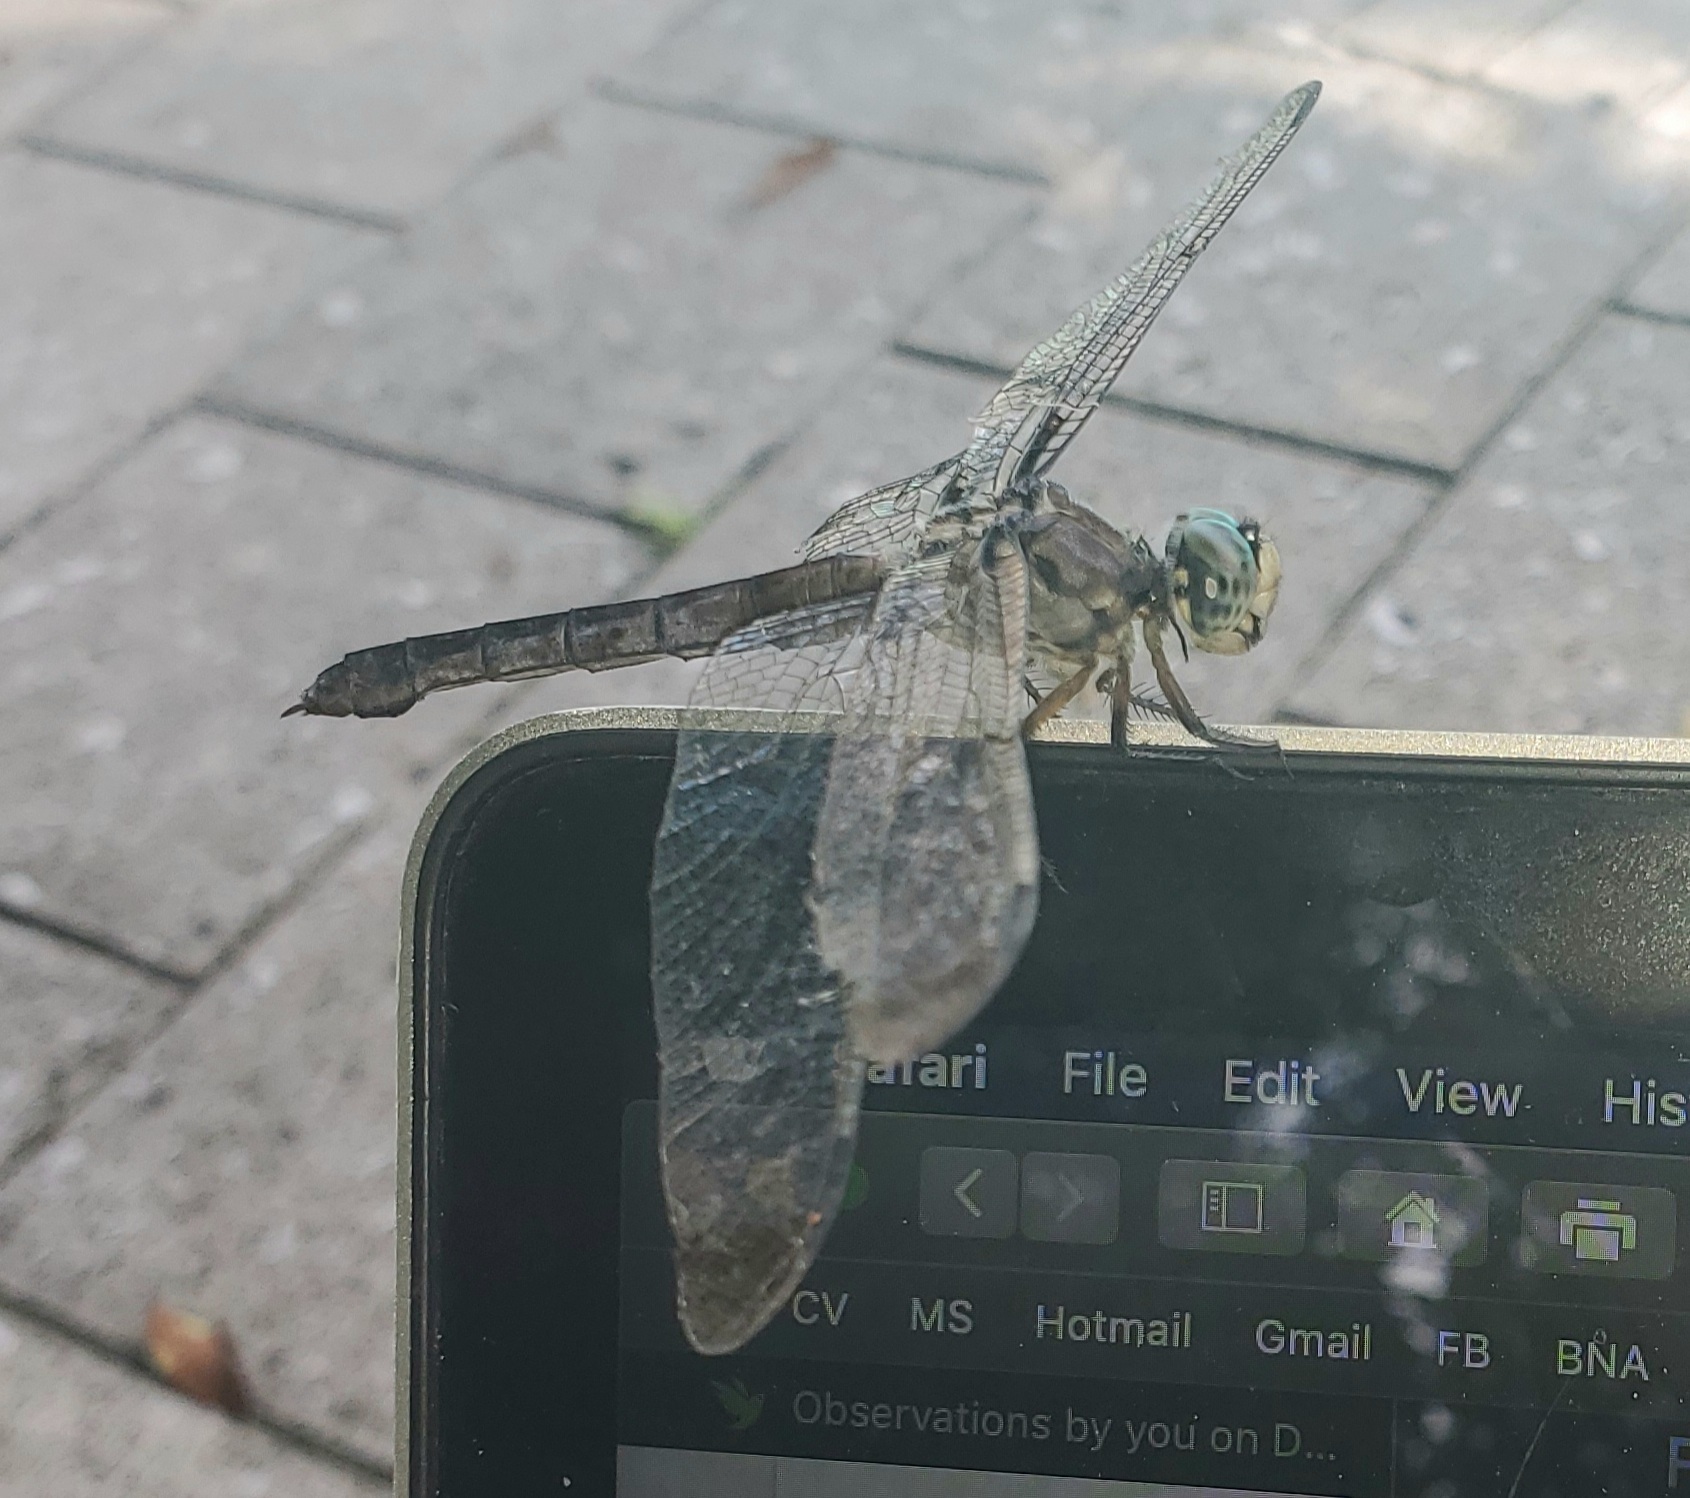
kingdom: Animalia
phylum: Arthropoda
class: Insecta
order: Odonata
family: Libellulidae
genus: Libellula
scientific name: Libellula vibrans
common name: Great blue skimmer
